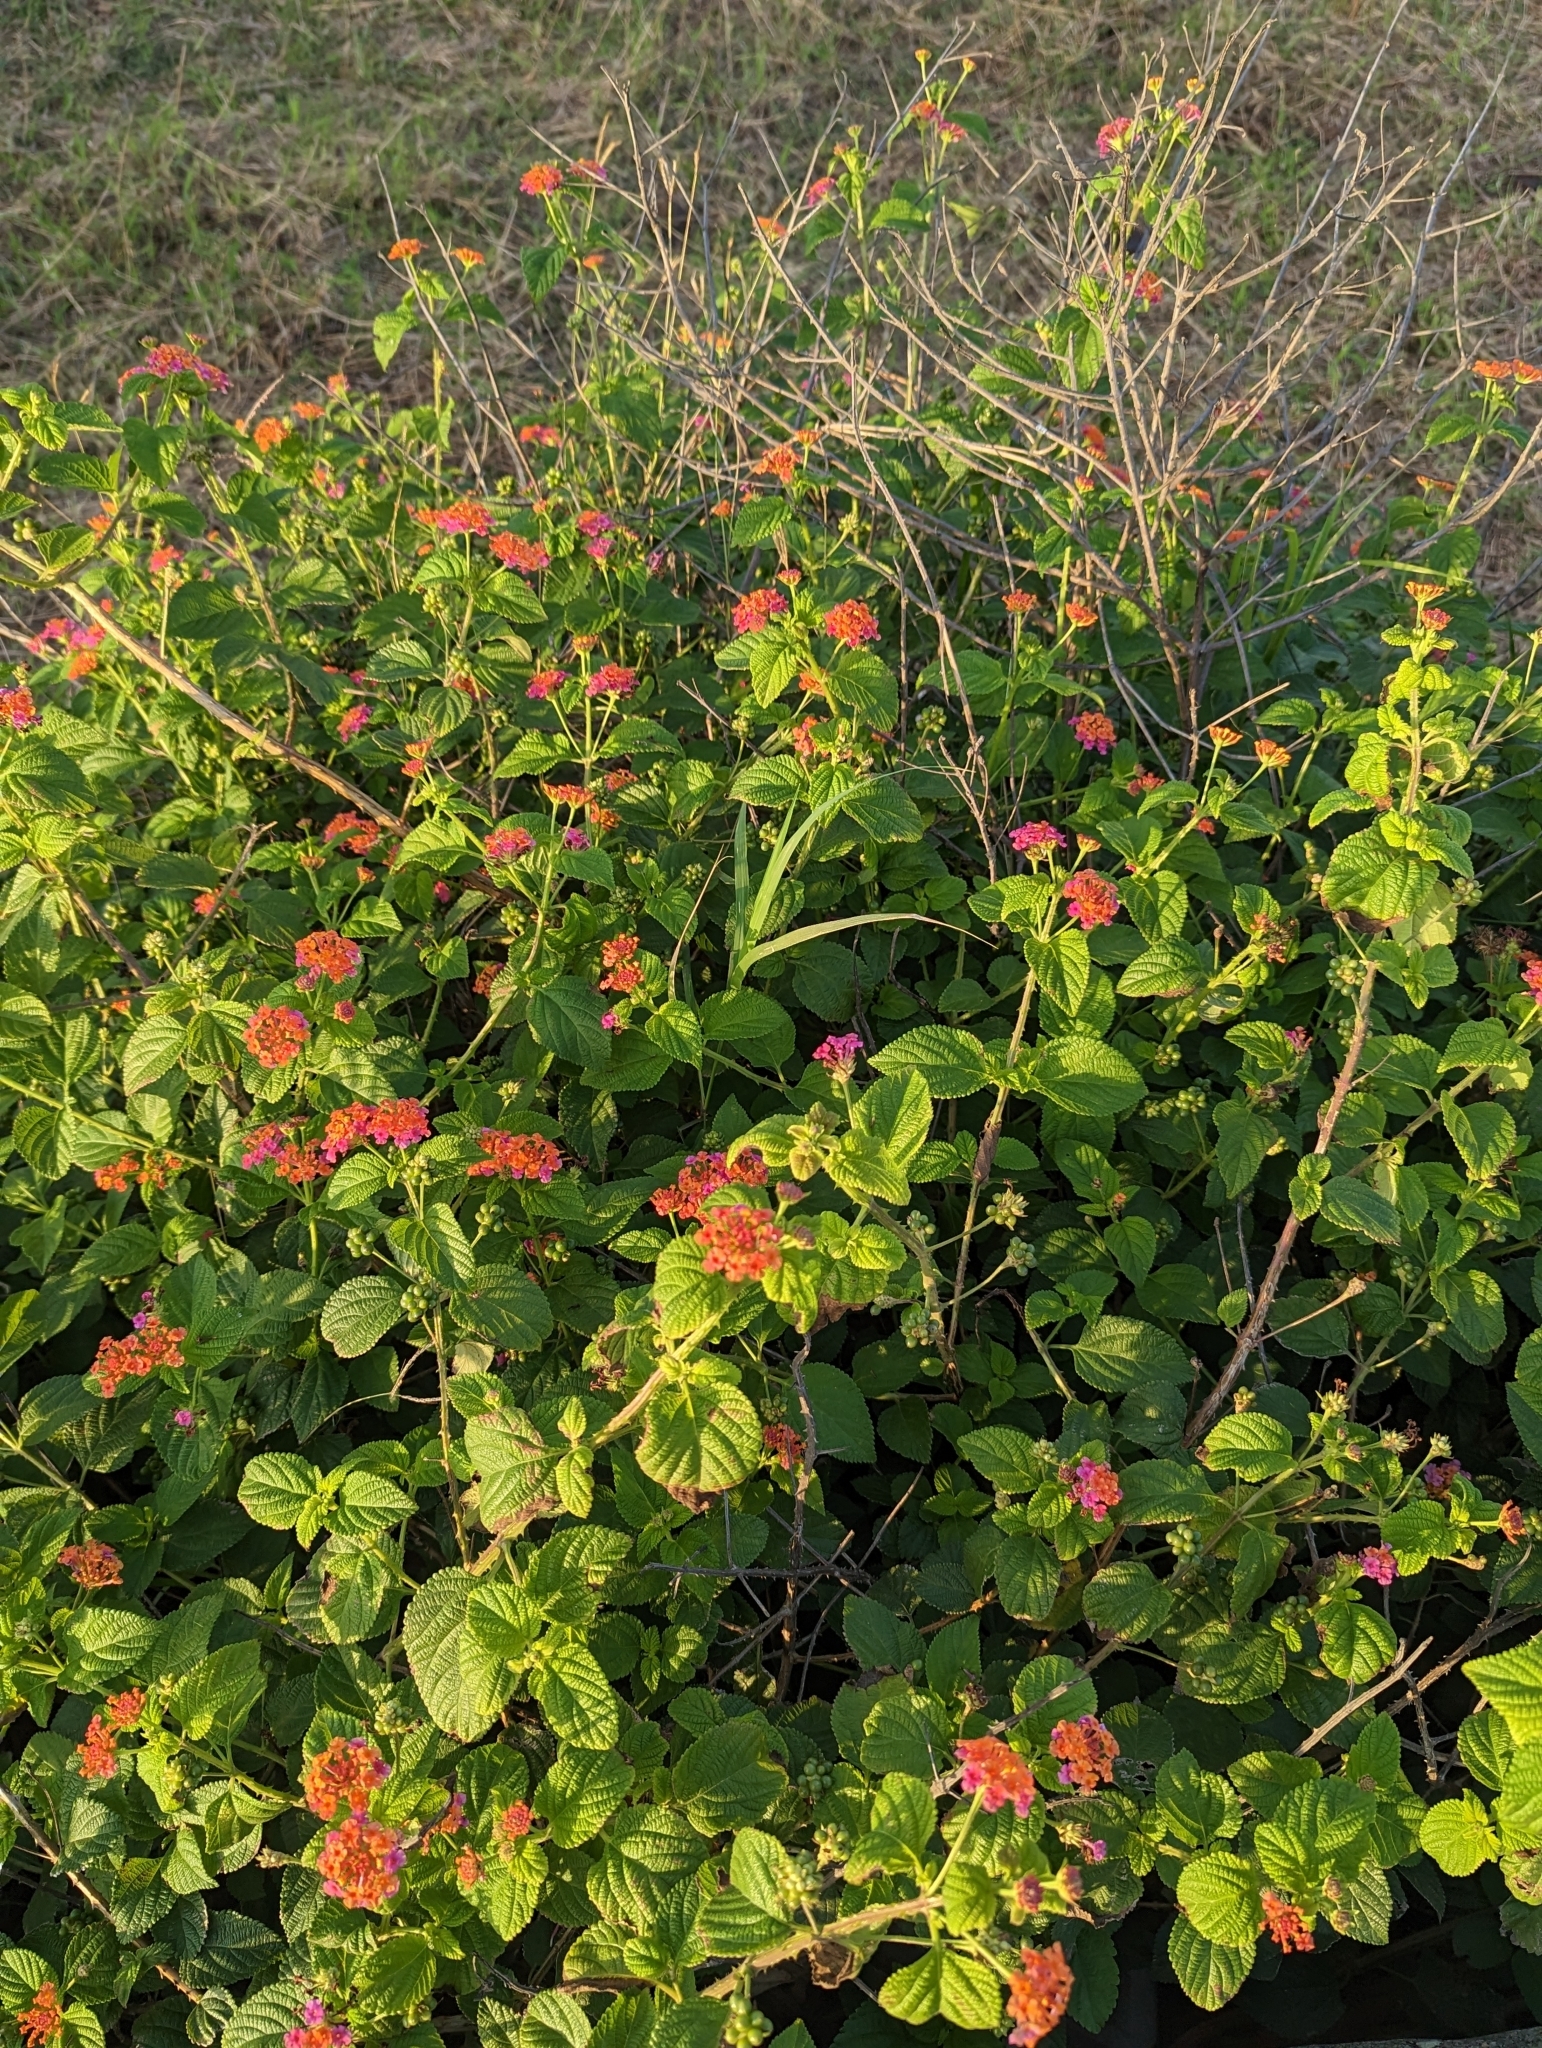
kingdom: Plantae
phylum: Tracheophyta
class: Magnoliopsida
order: Lamiales
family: Verbenaceae
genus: Lantana
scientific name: Lantana camara
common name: Lantana
